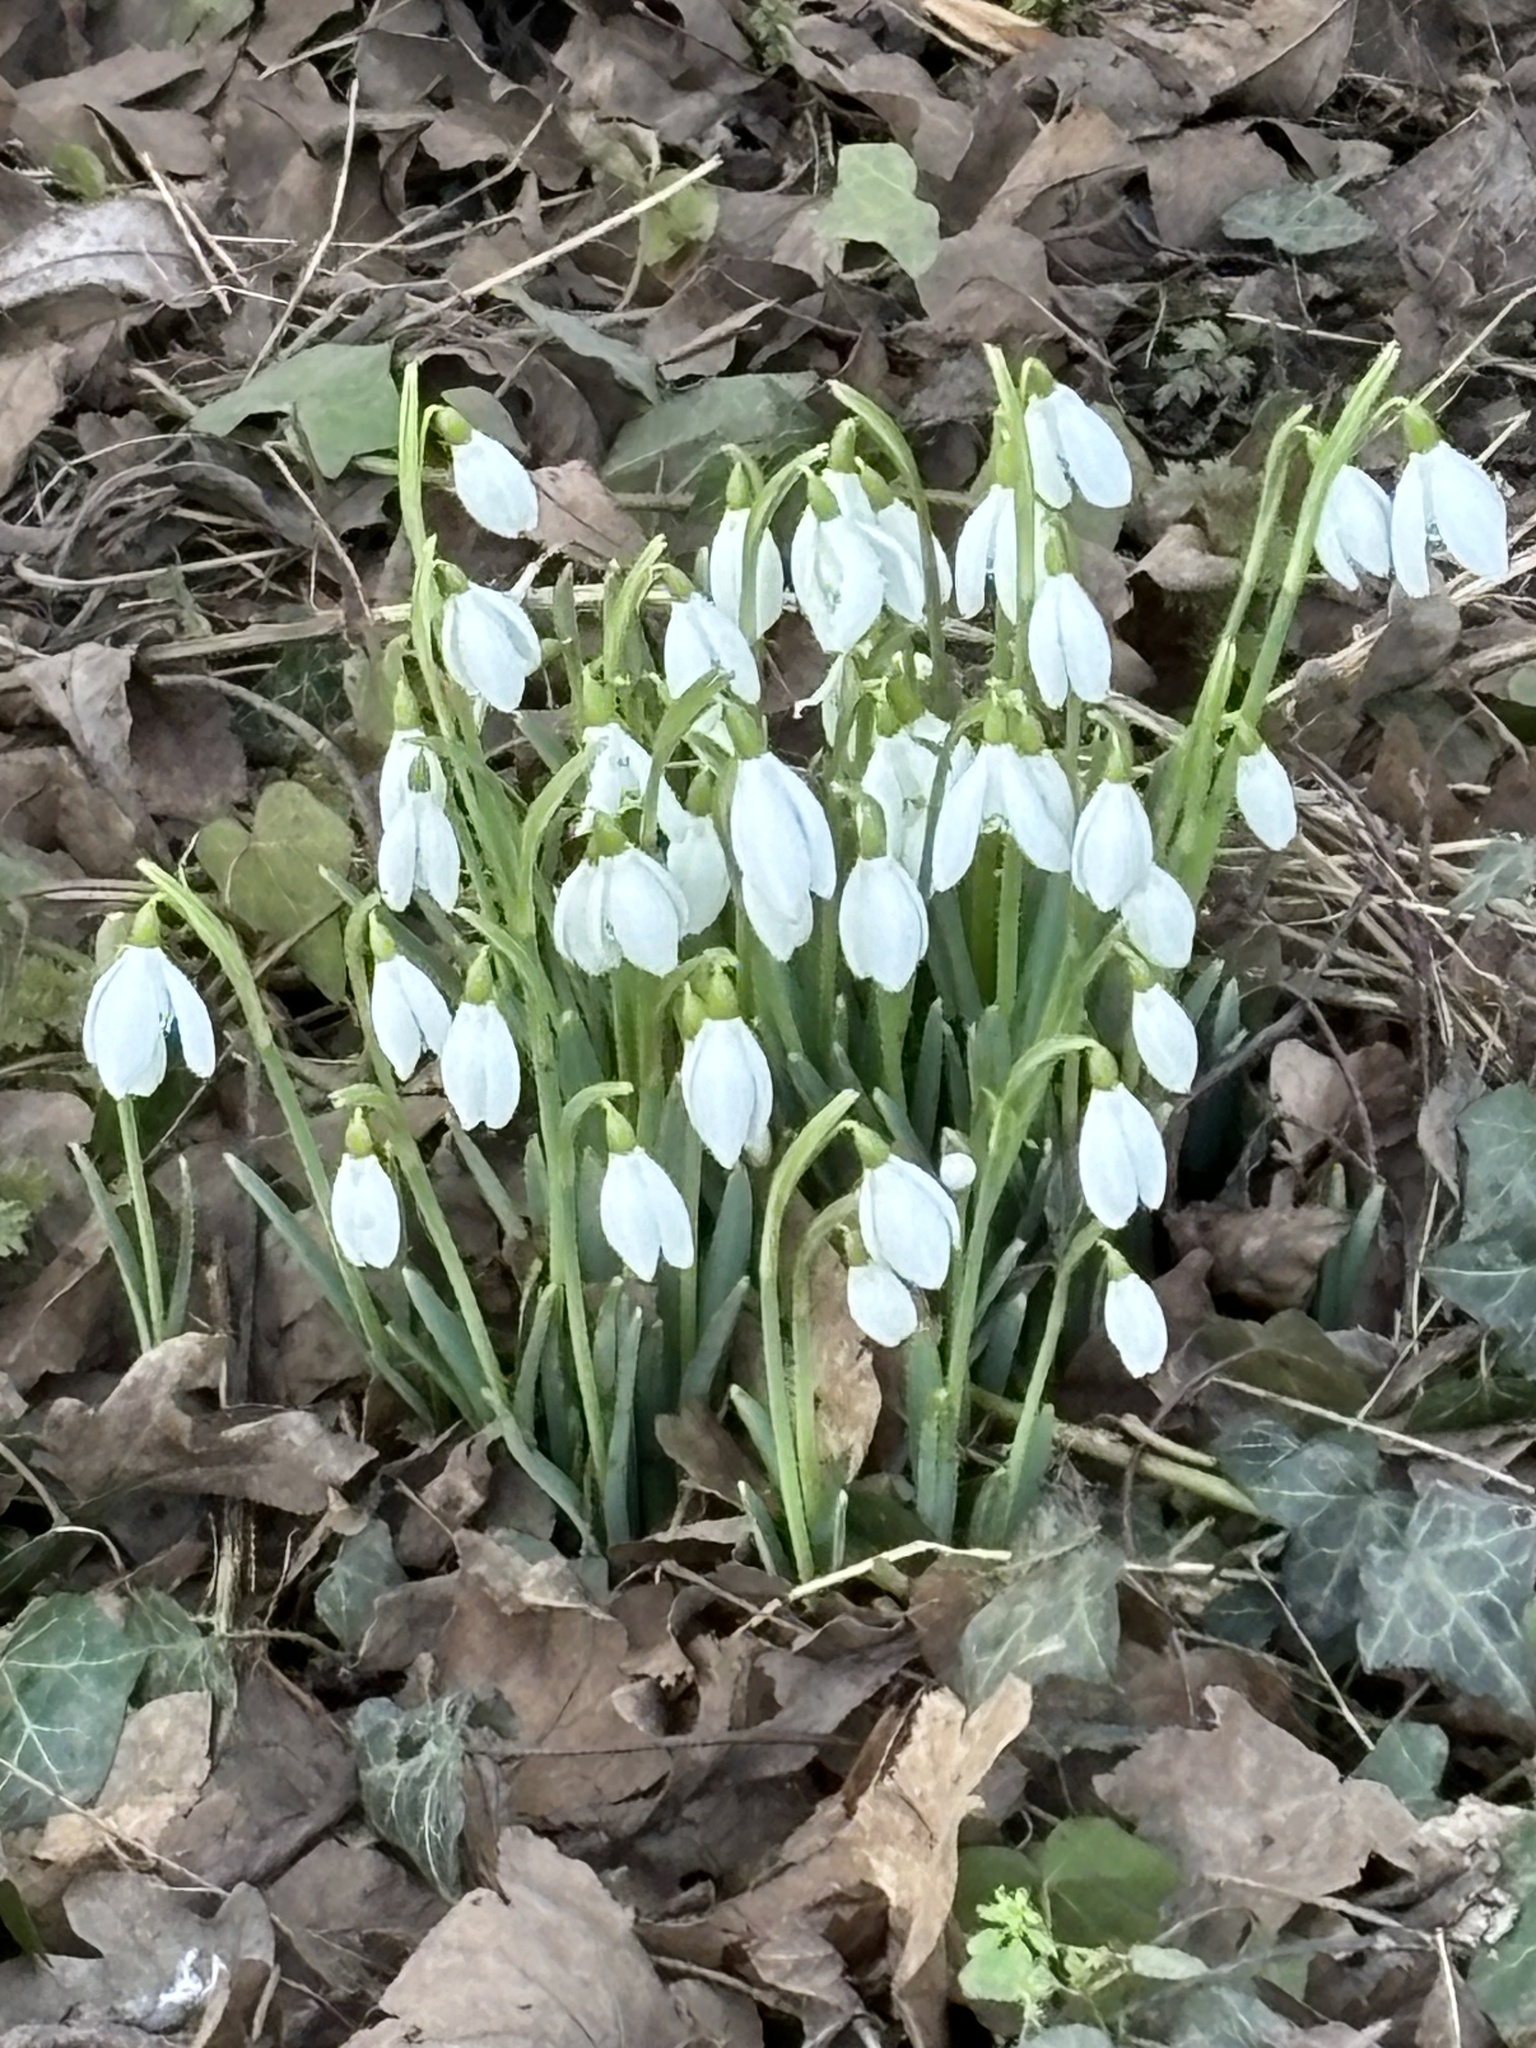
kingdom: Plantae
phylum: Tracheophyta
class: Liliopsida
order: Asparagales
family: Amaryllidaceae
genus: Galanthus
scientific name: Galanthus nivalis
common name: Snowdrop
